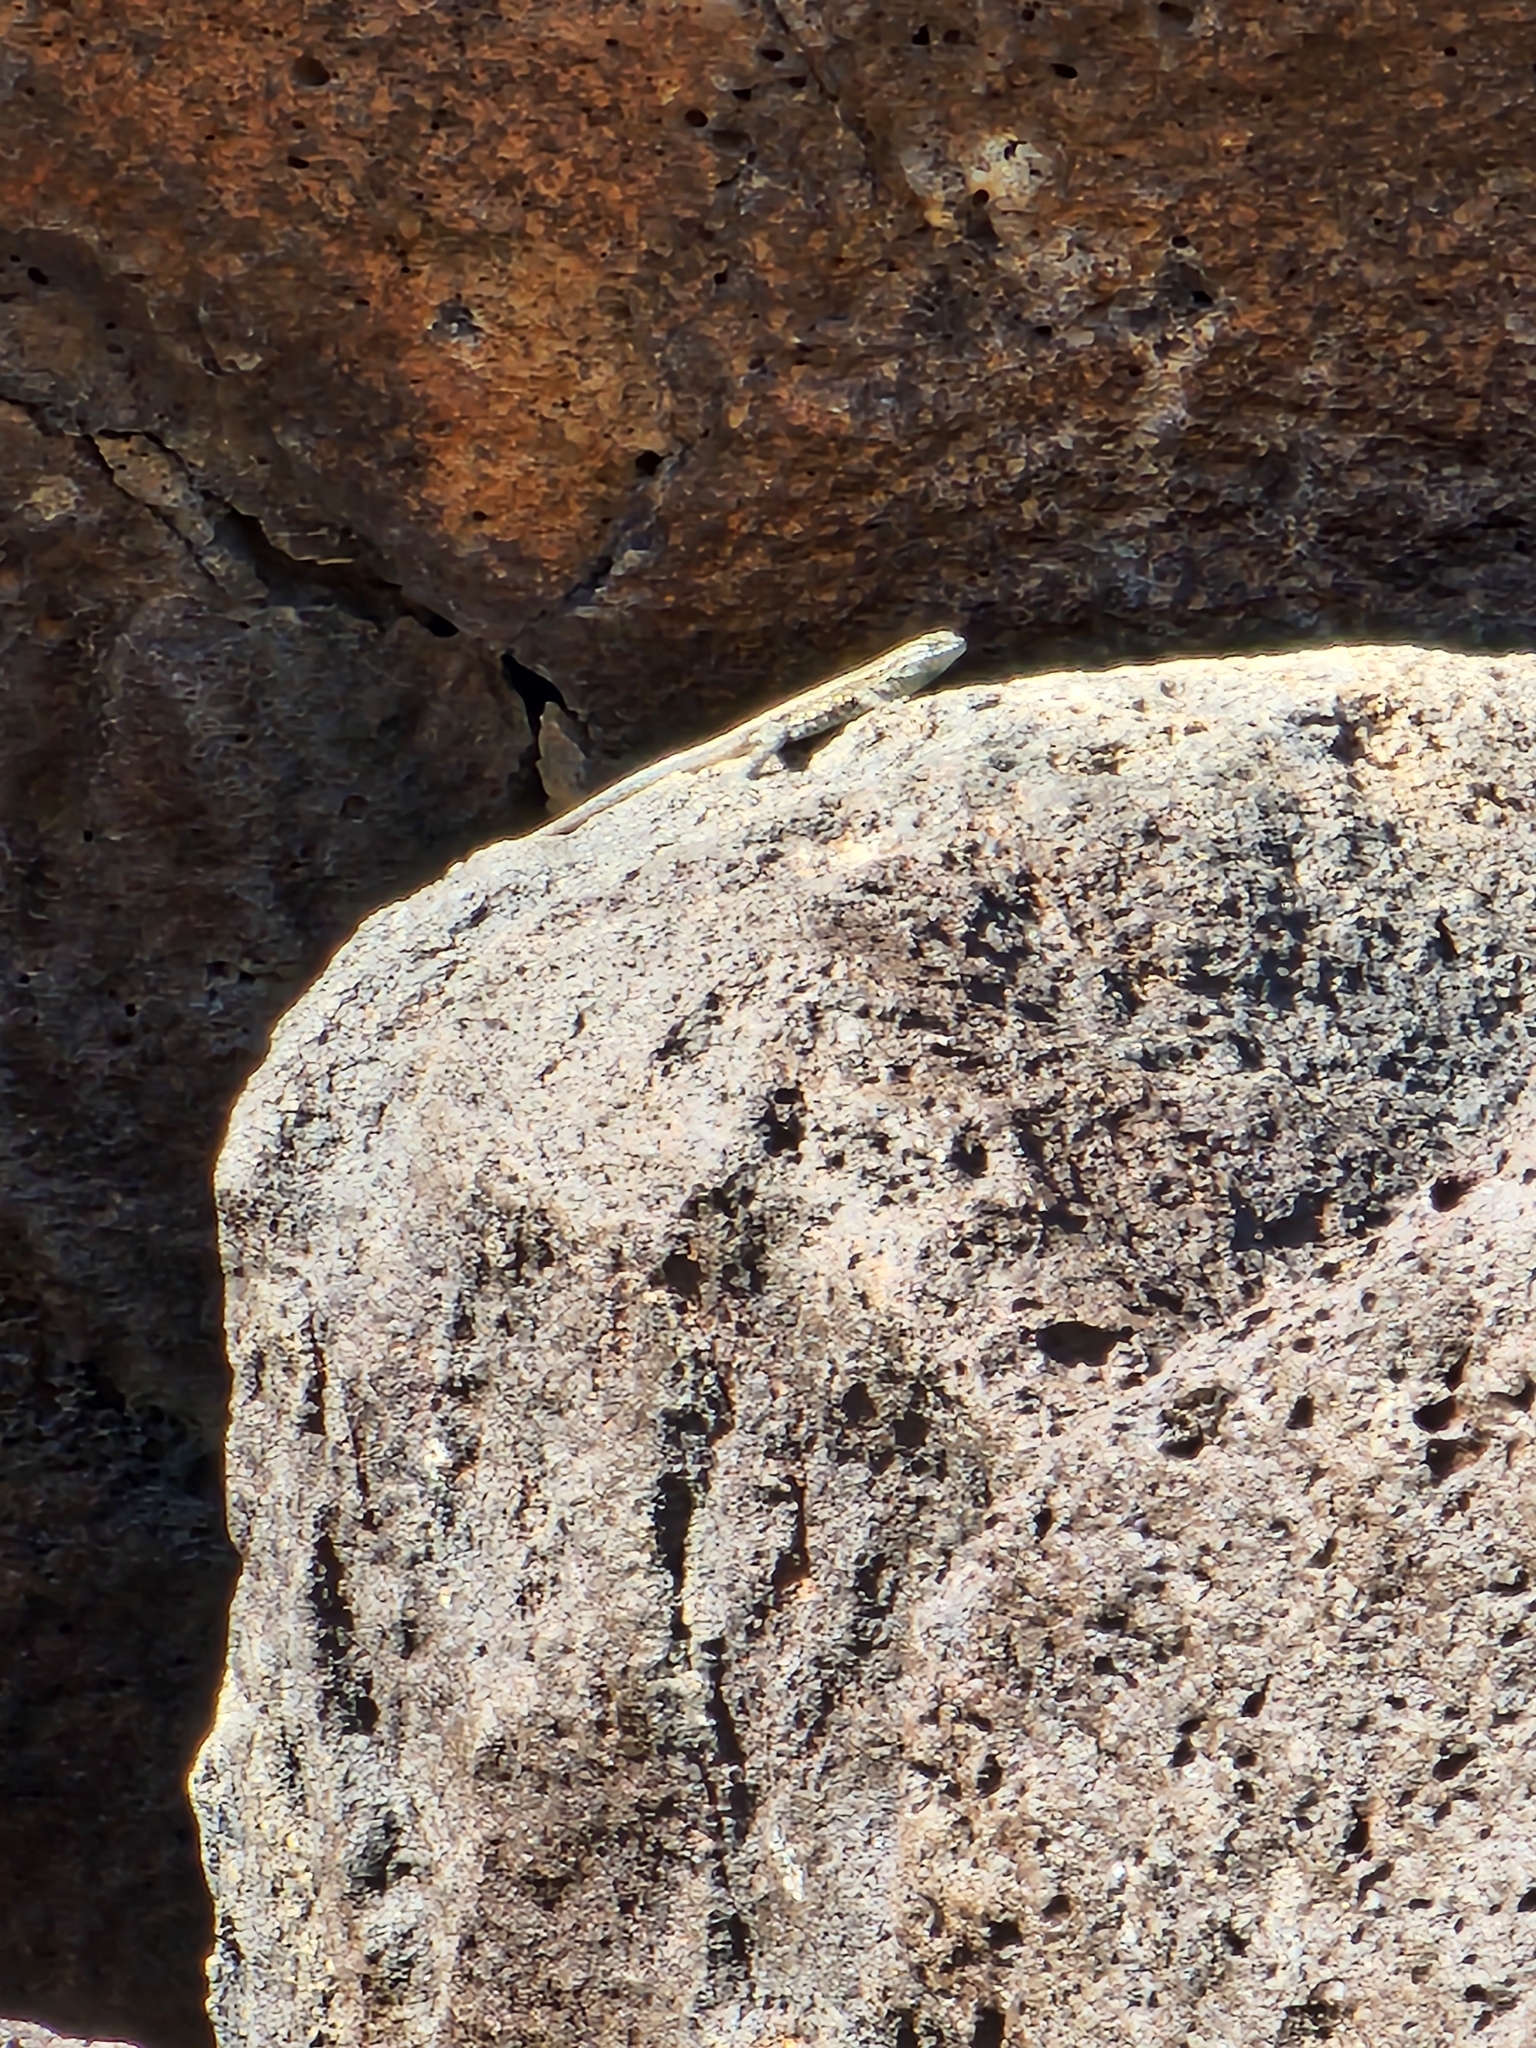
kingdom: Animalia
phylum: Chordata
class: Squamata
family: Phrynosomatidae
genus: Uta
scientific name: Uta stansburiana
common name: Side-blotched lizard
